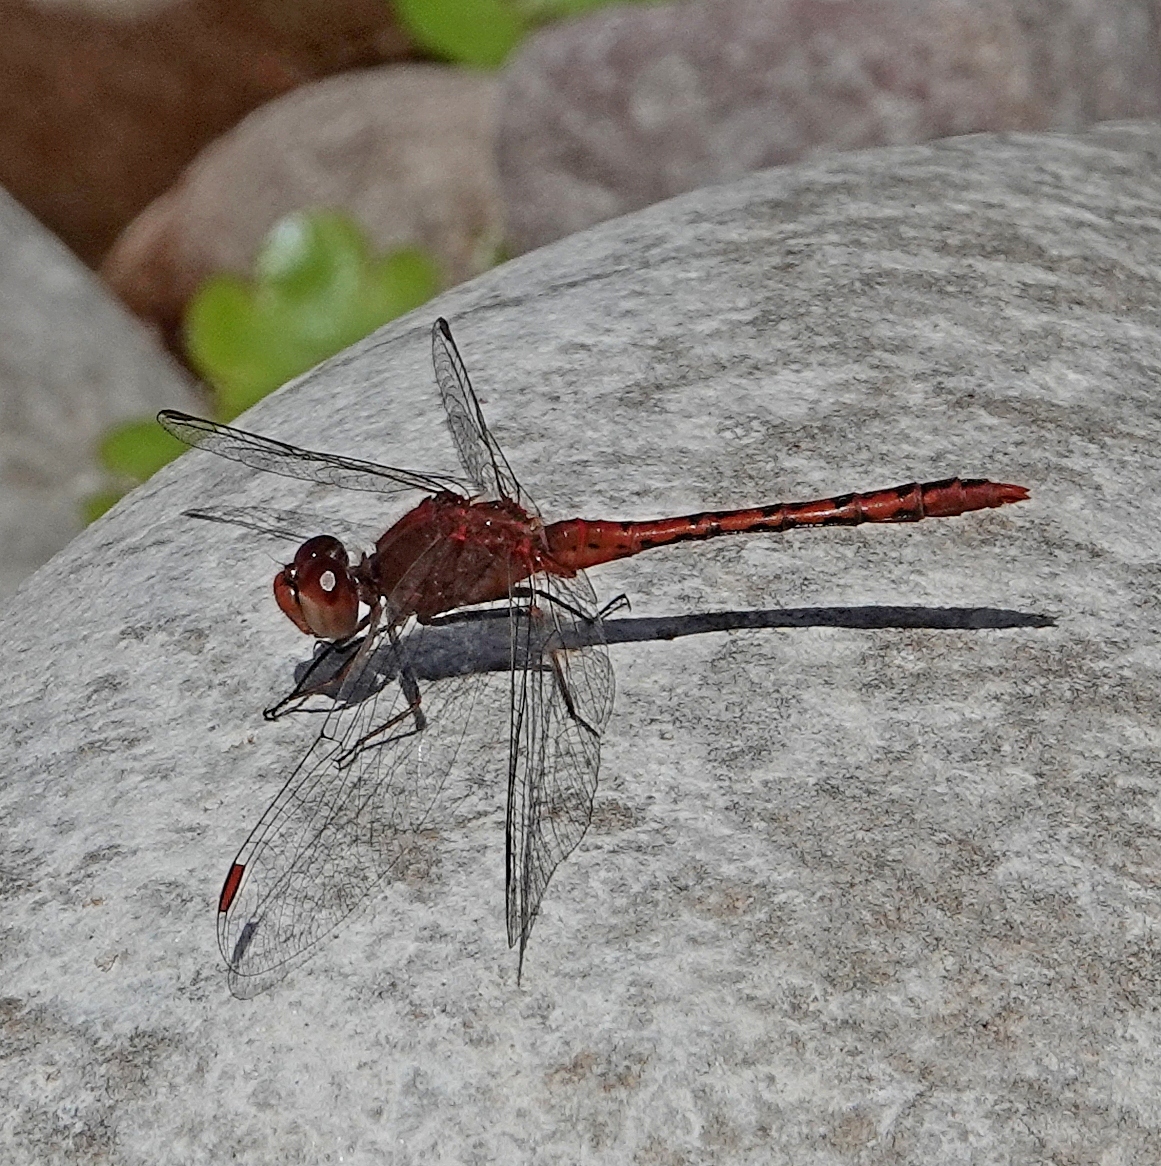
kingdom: Animalia
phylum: Arthropoda
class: Insecta
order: Odonata
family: Libellulidae
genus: Diplacodes
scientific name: Diplacodes bipunctata
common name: Red percher dragonfly
